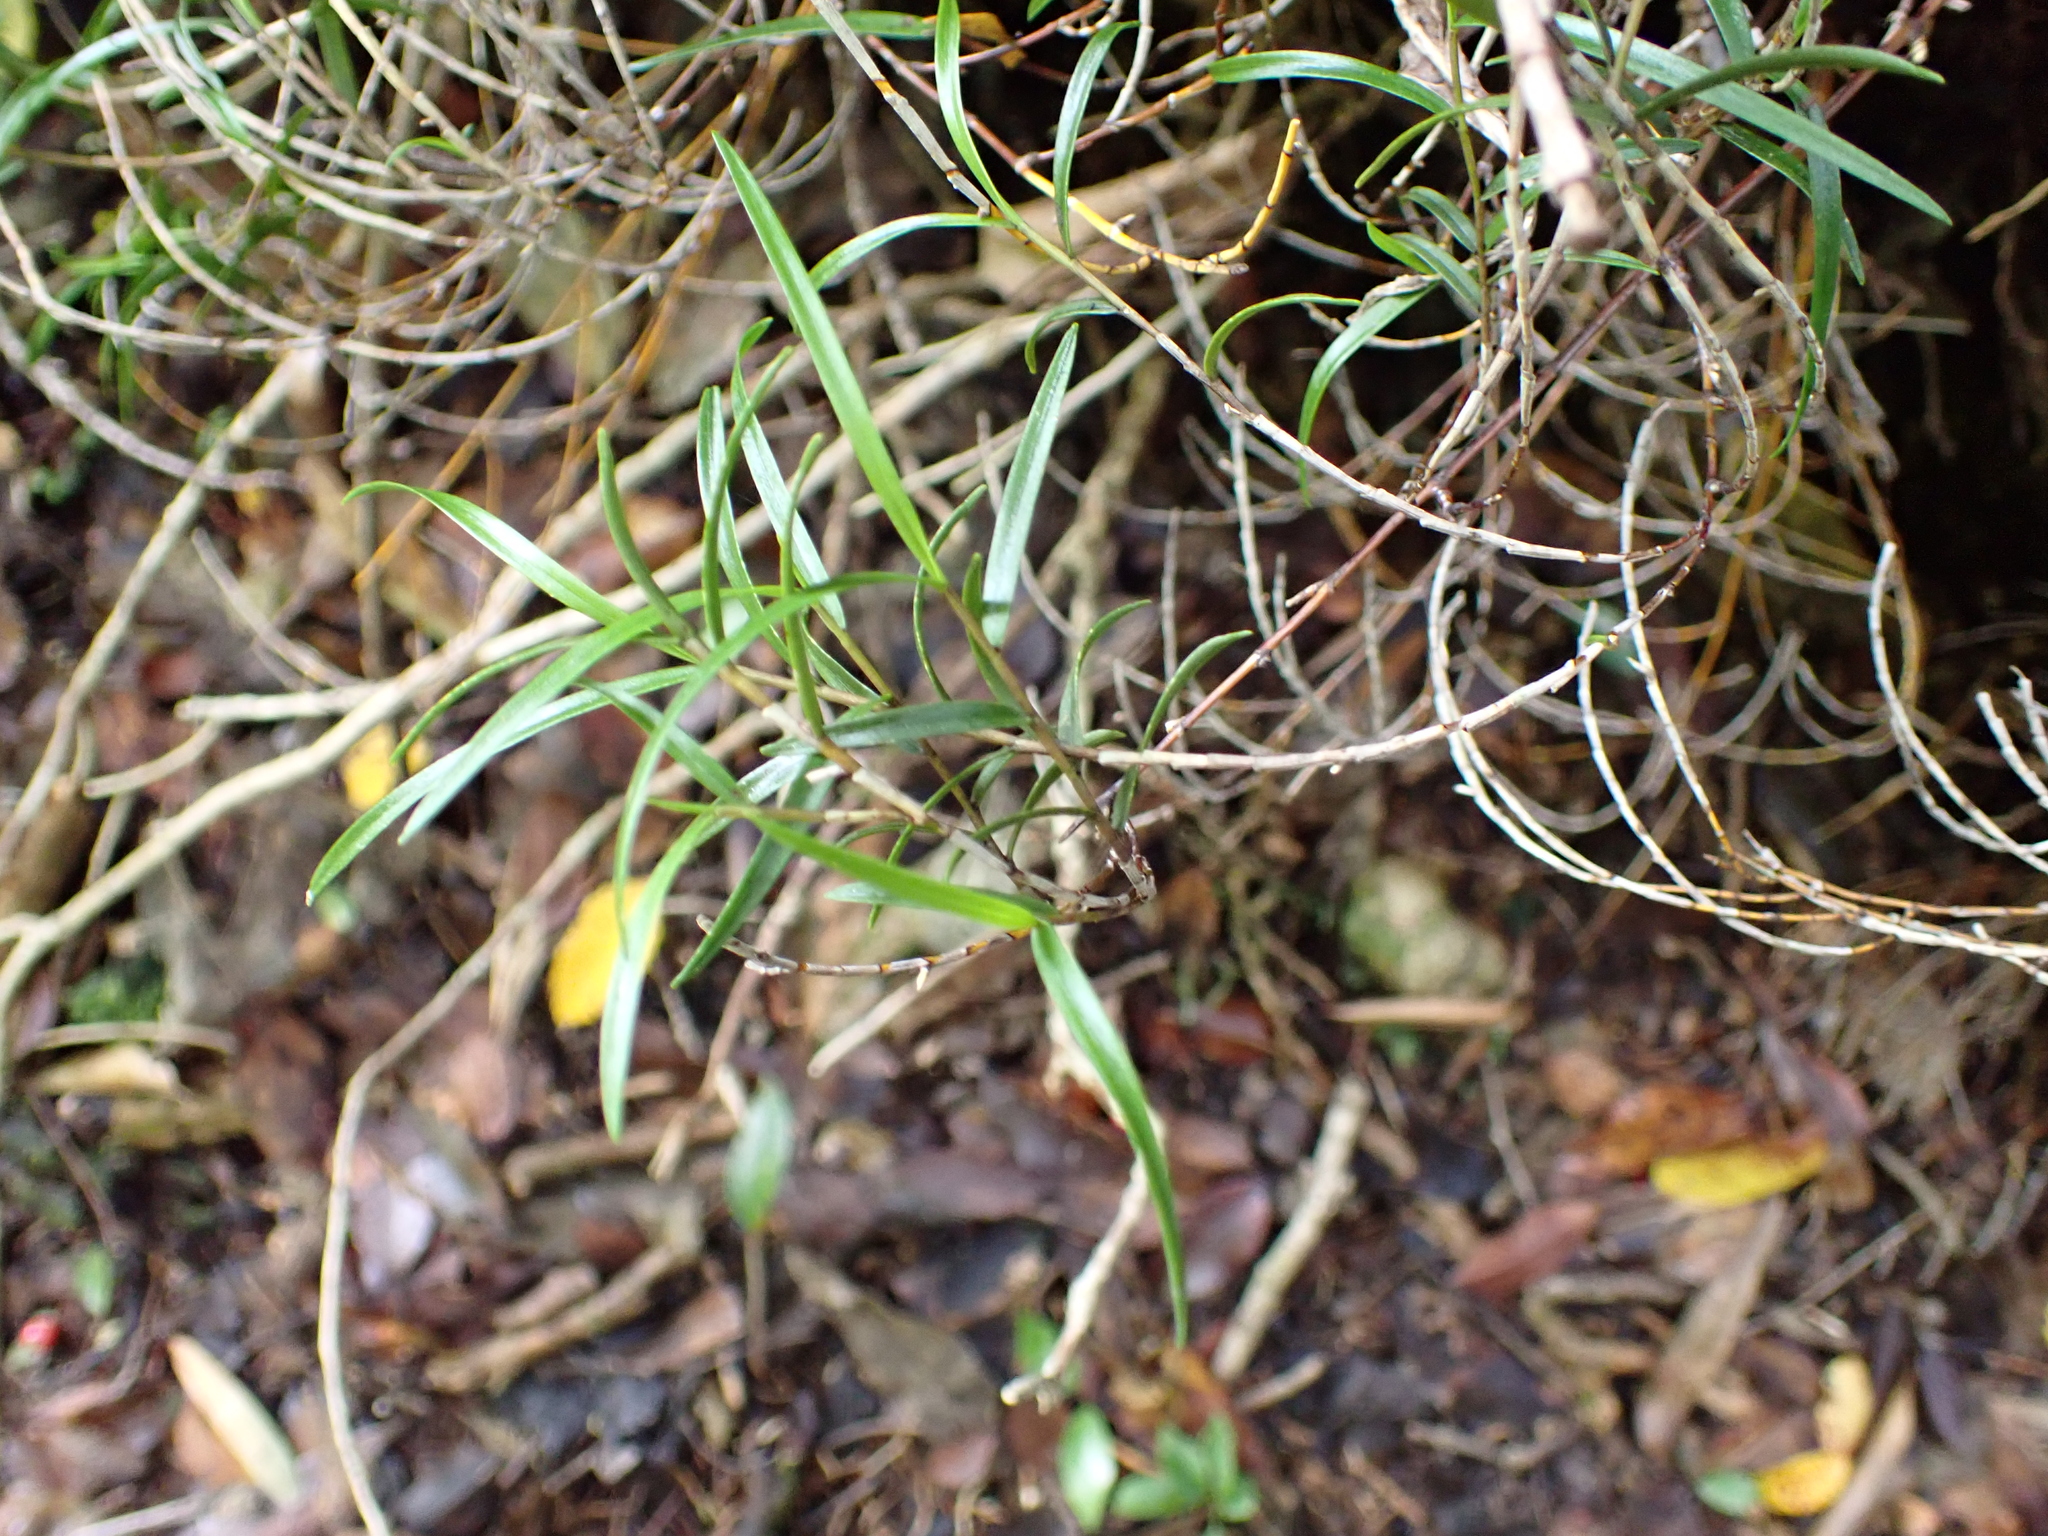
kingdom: Plantae
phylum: Tracheophyta
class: Liliopsida
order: Asparagales
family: Orchidaceae
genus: Dendrobium
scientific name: Dendrobium cunninghamii
